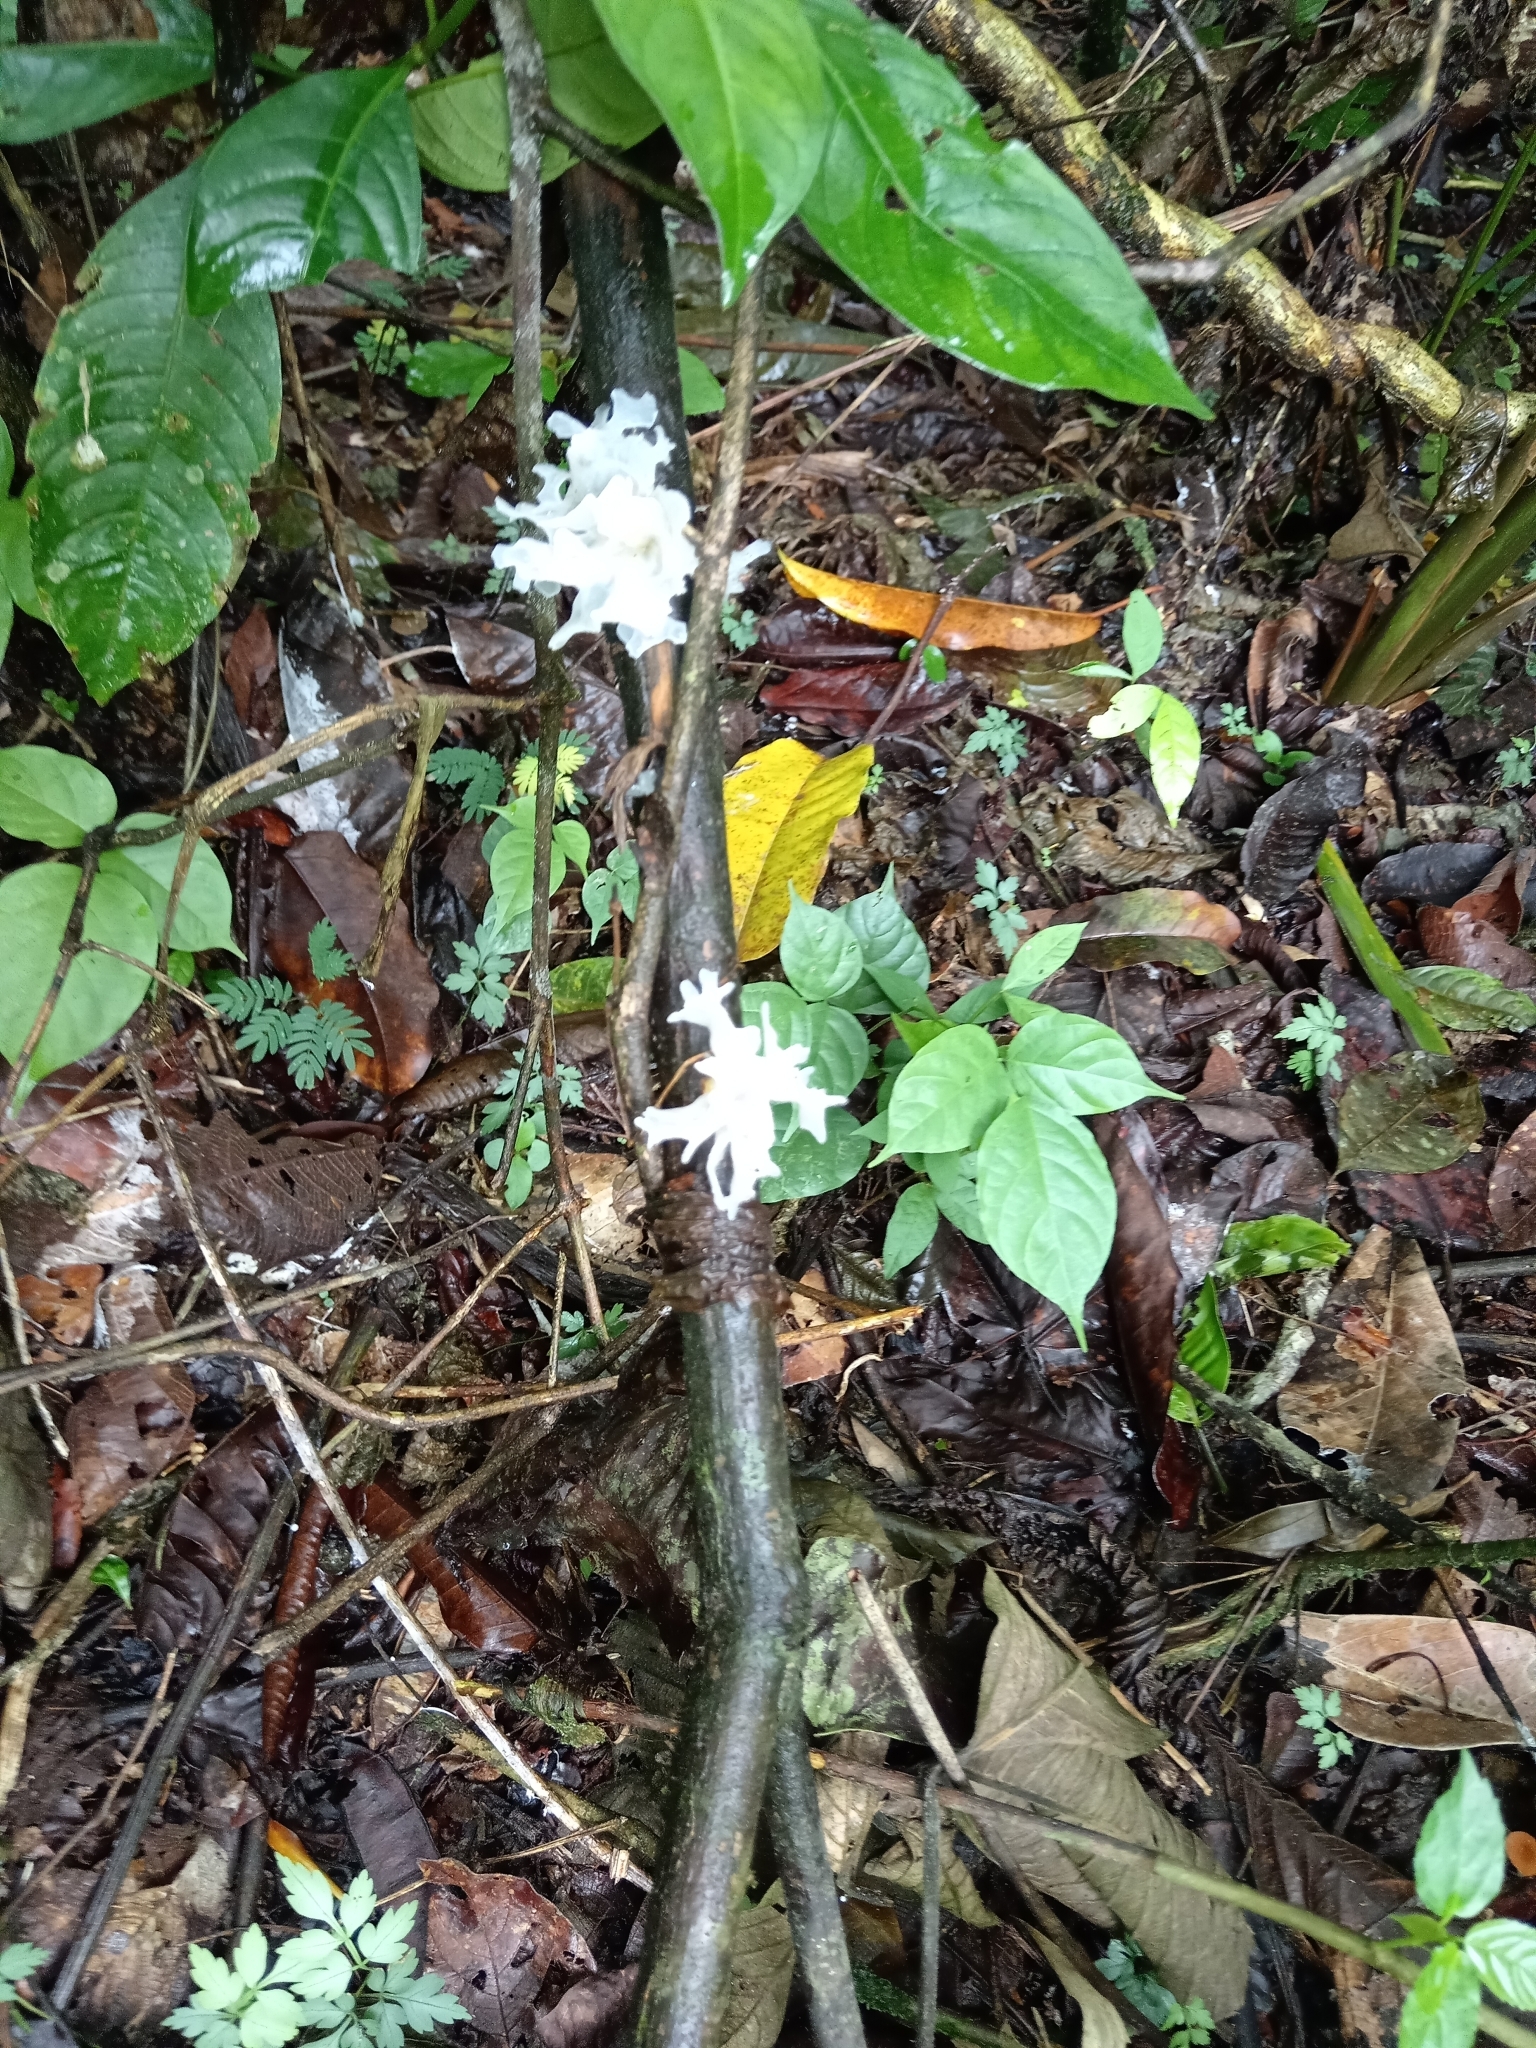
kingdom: Fungi
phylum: Basidiomycota
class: Tremellomycetes
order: Tremellales
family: Tremellaceae
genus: Tremella
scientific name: Tremella fuciformis
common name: Snow fungus
